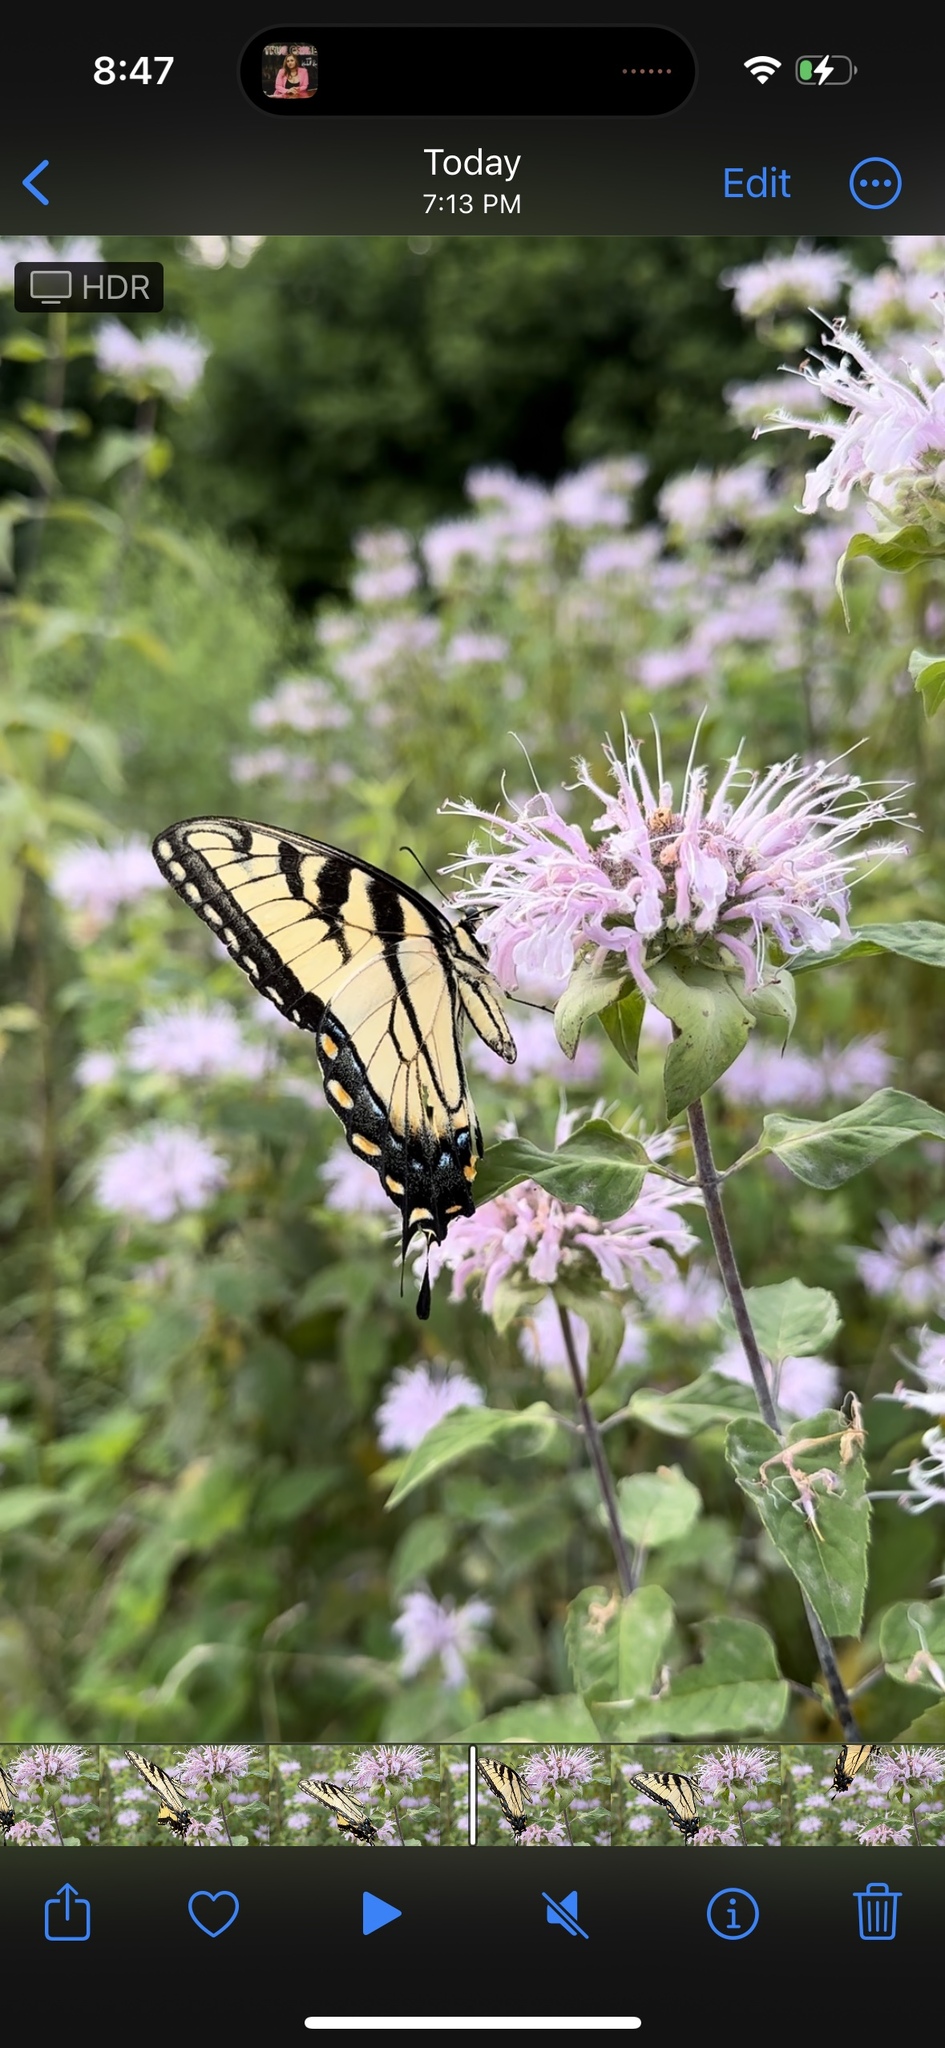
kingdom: Animalia
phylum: Arthropoda
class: Insecta
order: Lepidoptera
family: Papilionidae
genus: Papilio
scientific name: Papilio glaucus
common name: Tiger swallowtail
